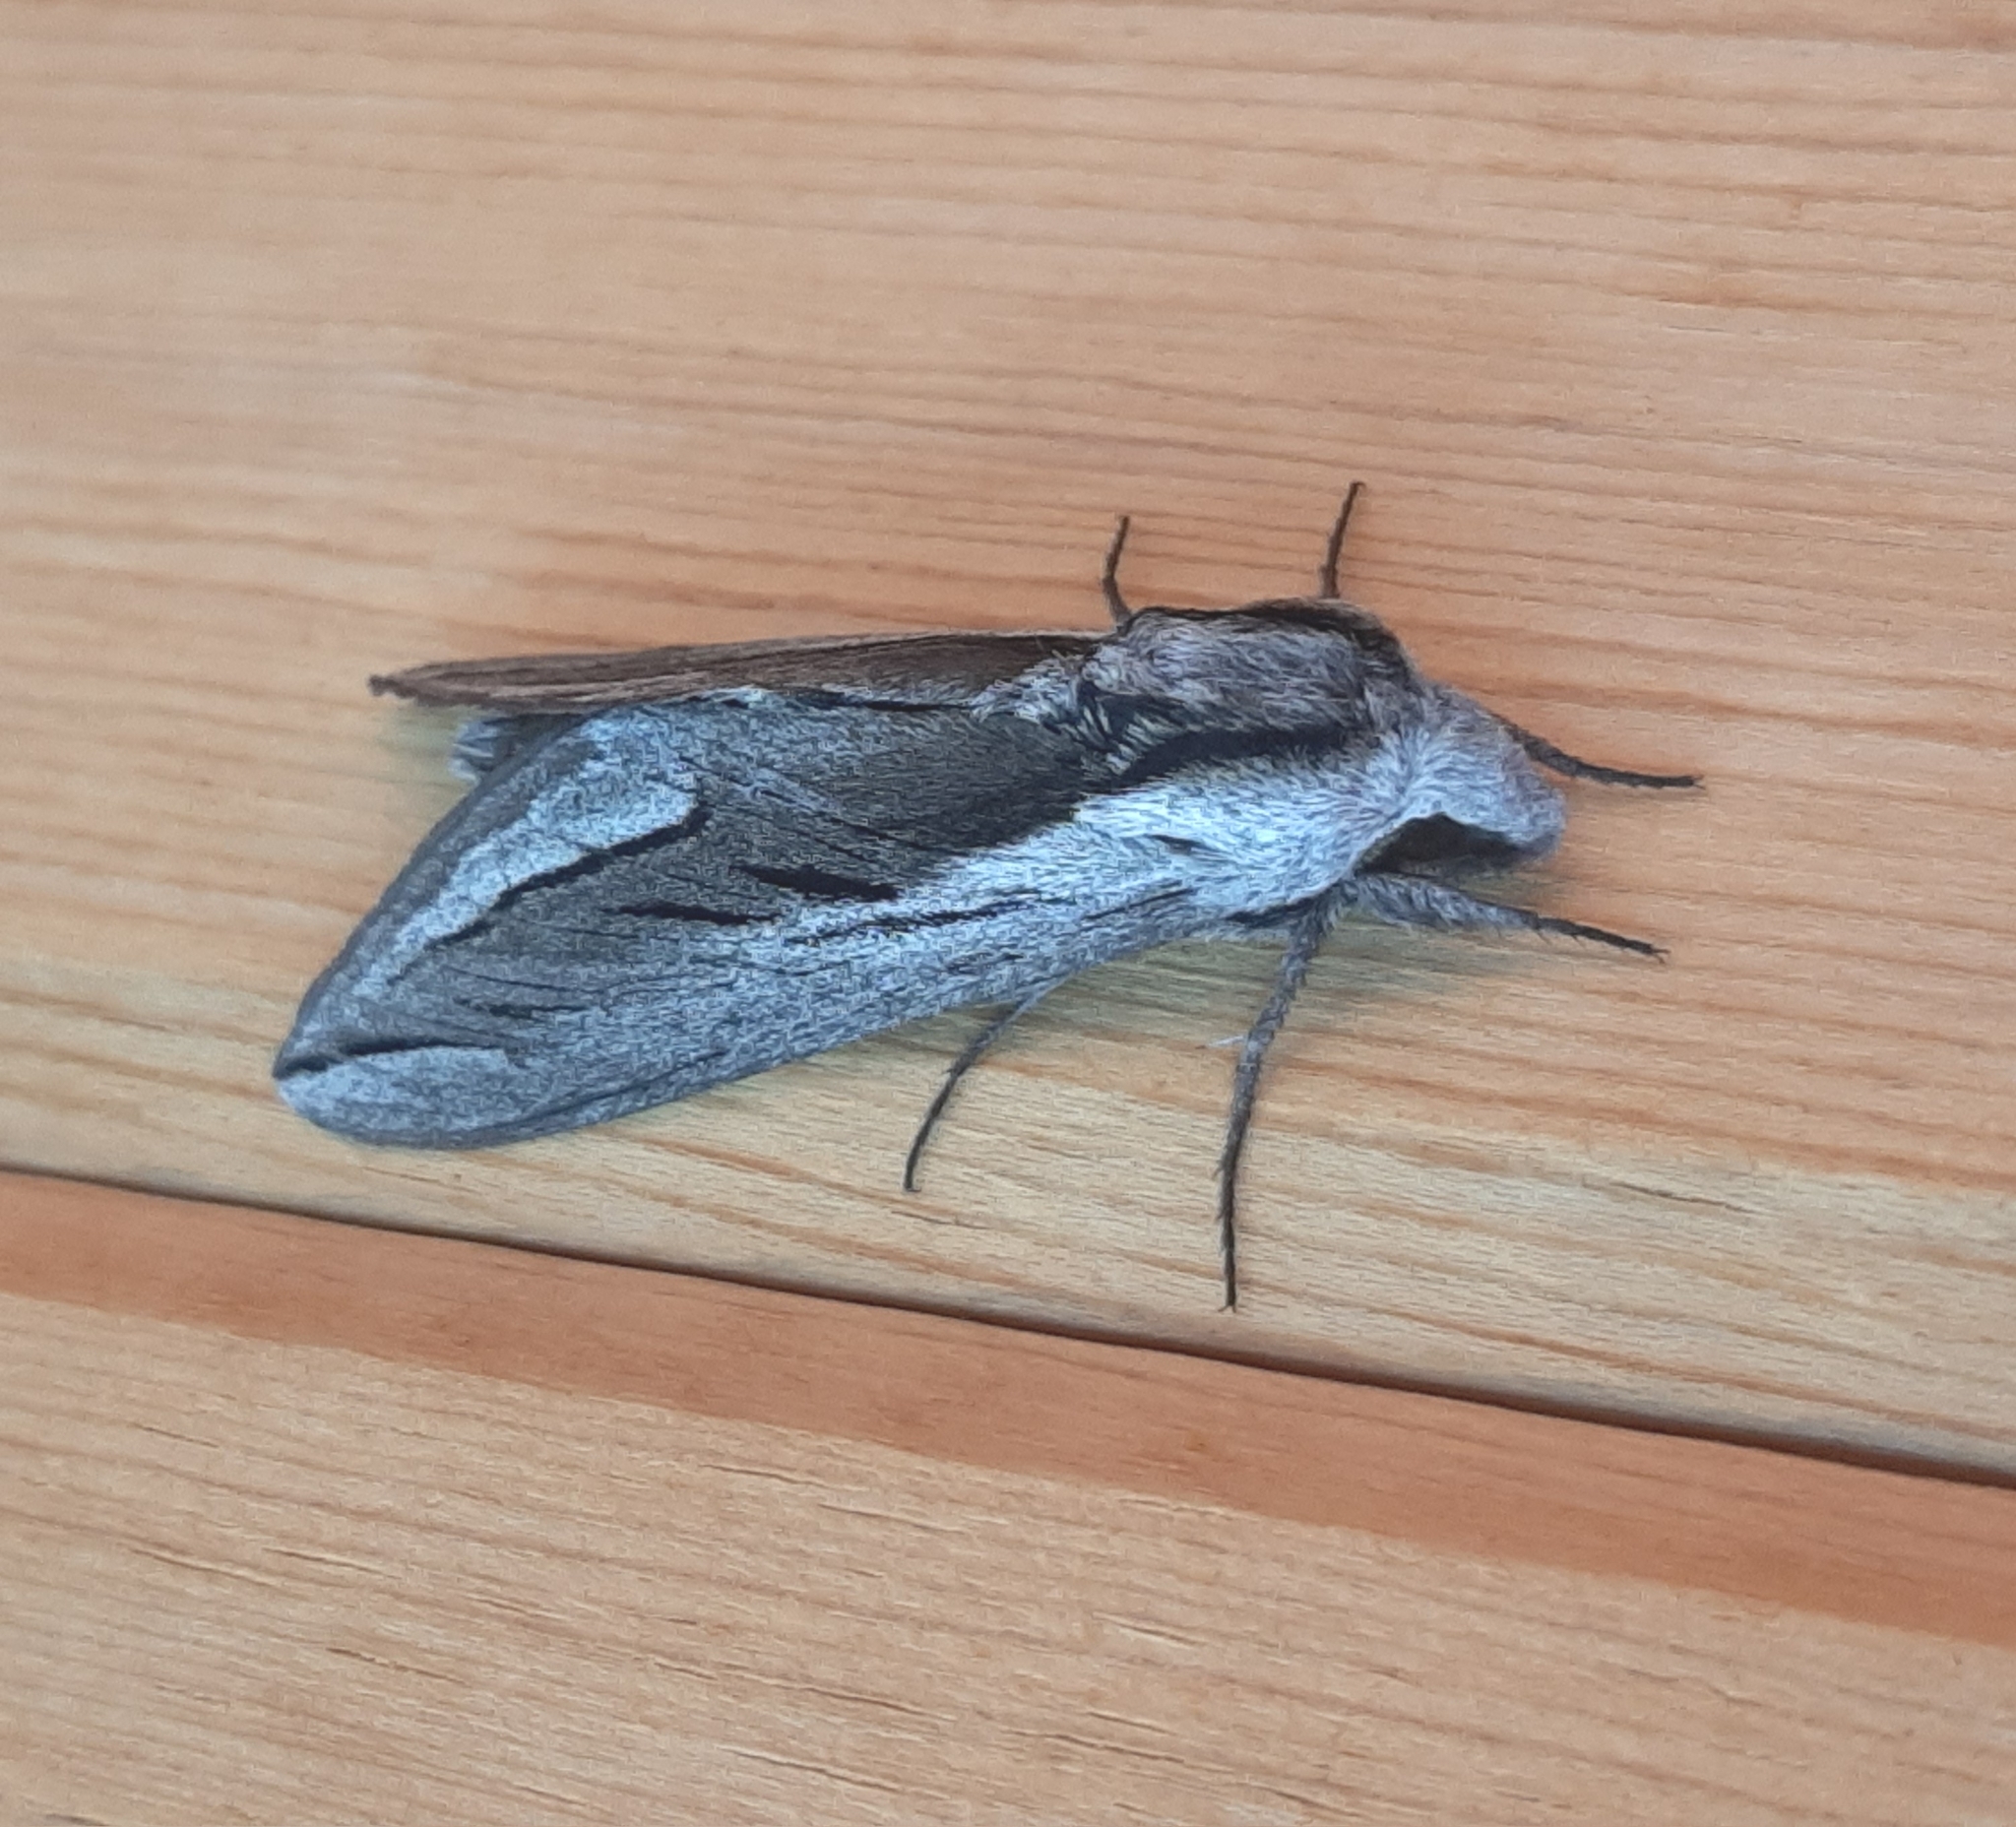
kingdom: Animalia
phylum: Arthropoda
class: Insecta
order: Lepidoptera
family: Sphingidae
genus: Sphinx
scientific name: Sphinx vashti
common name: Snowberry sphinx
